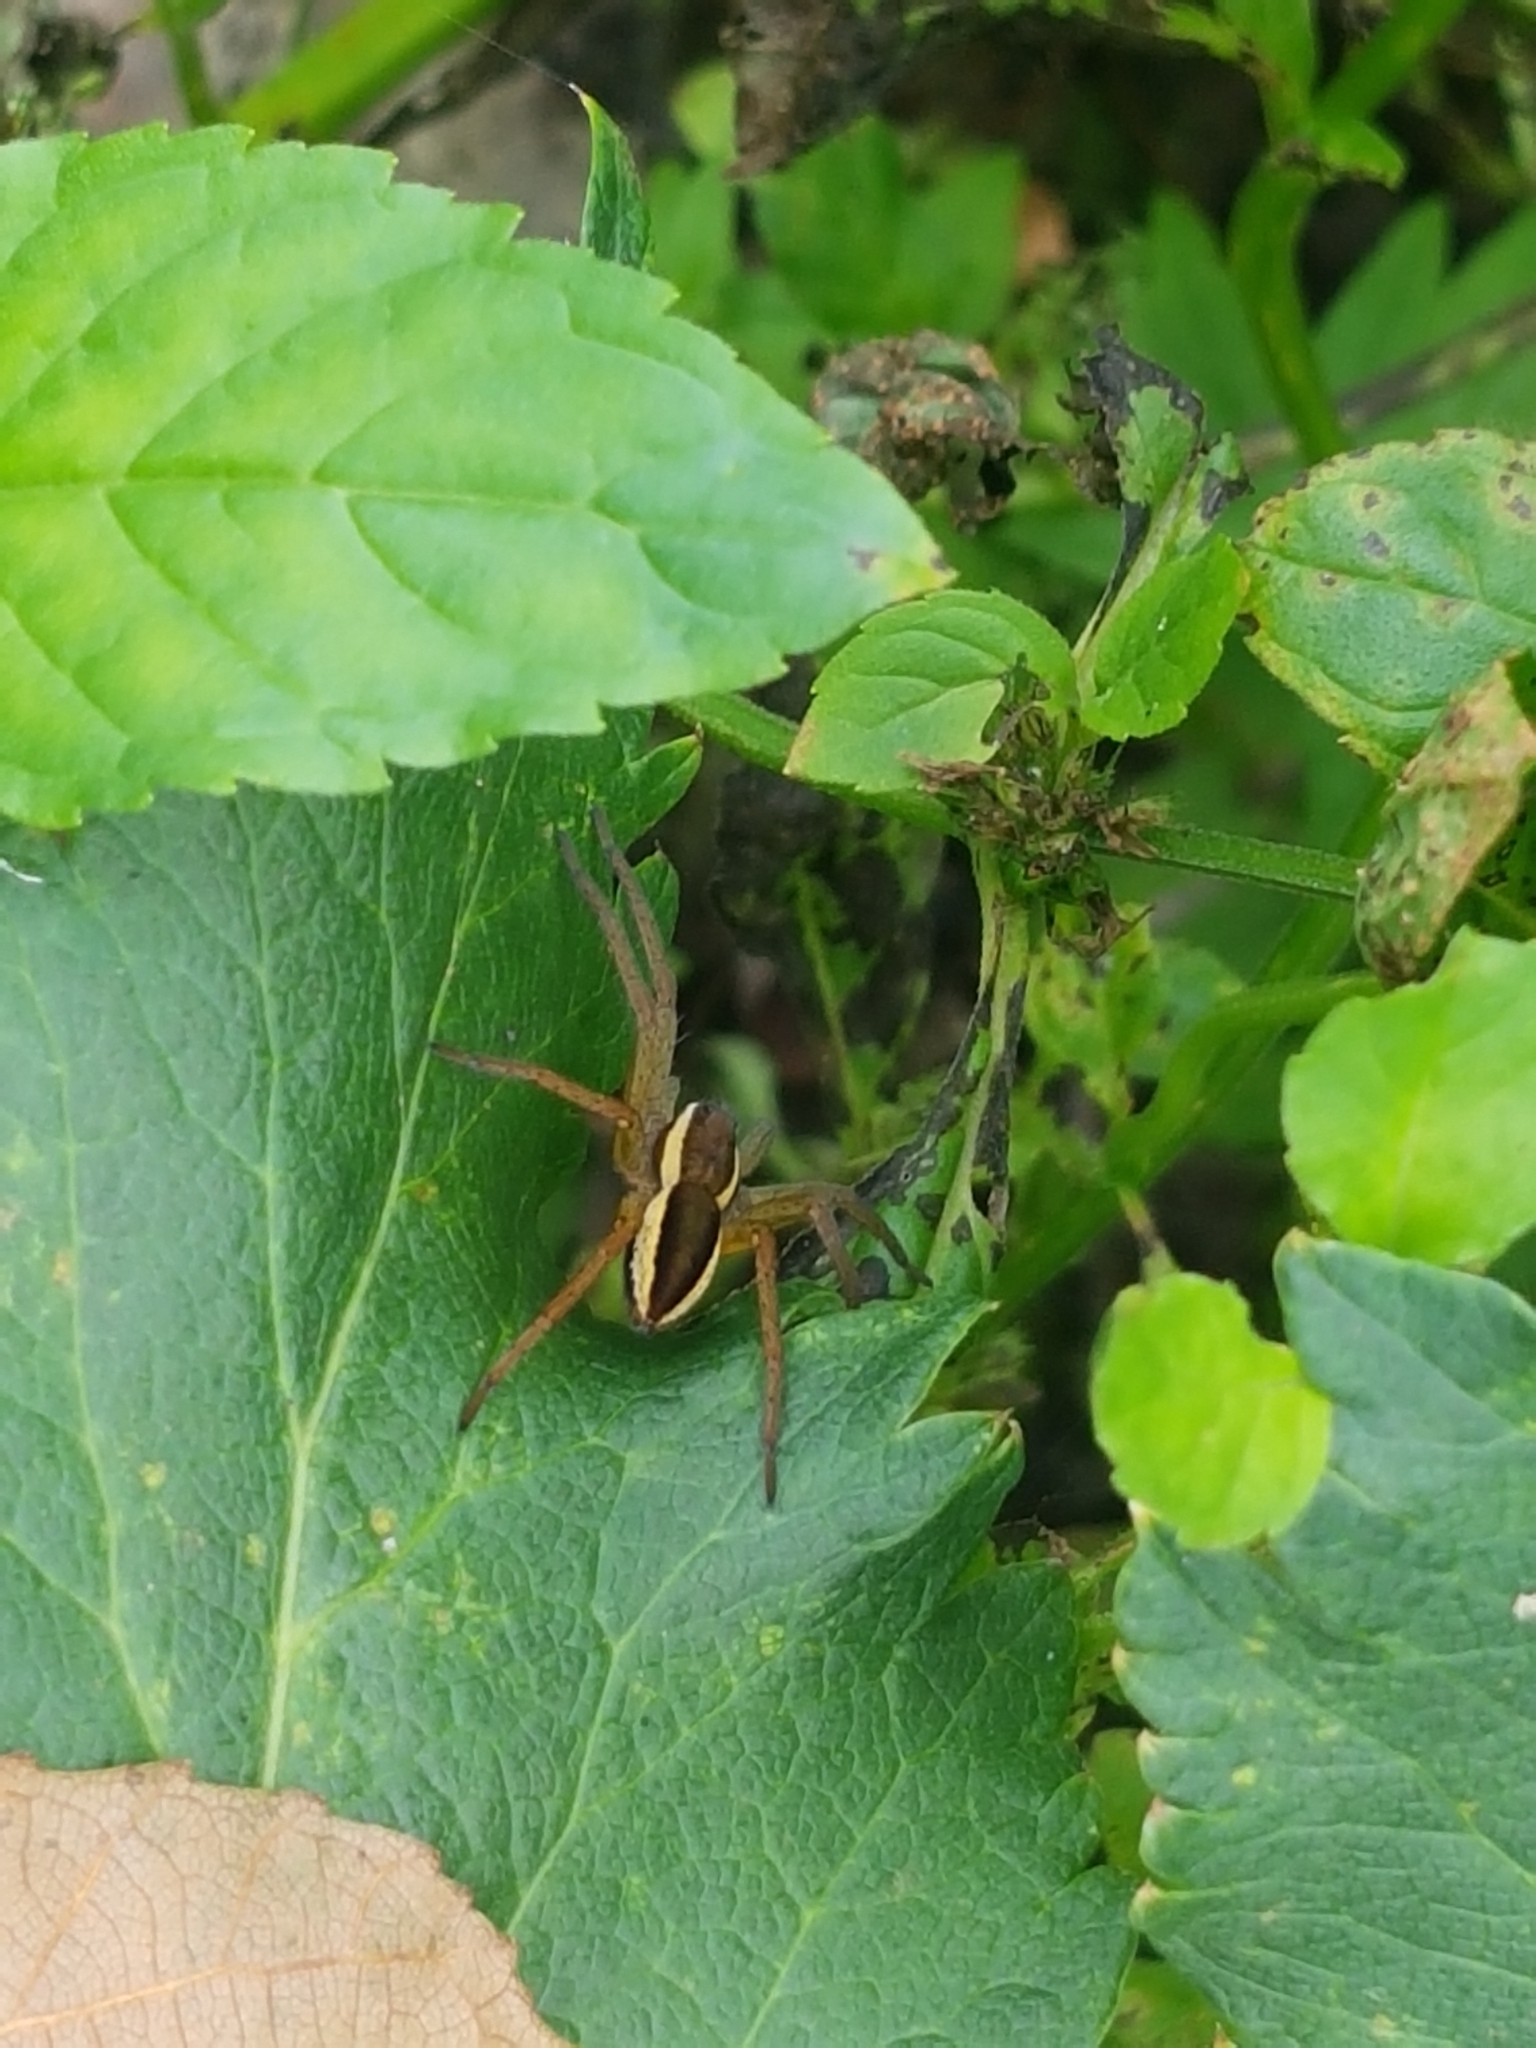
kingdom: Animalia
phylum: Arthropoda
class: Arachnida
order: Araneae
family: Pisauridae
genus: Dolomedes
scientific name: Dolomedes fimbriatus
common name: Raft spider
